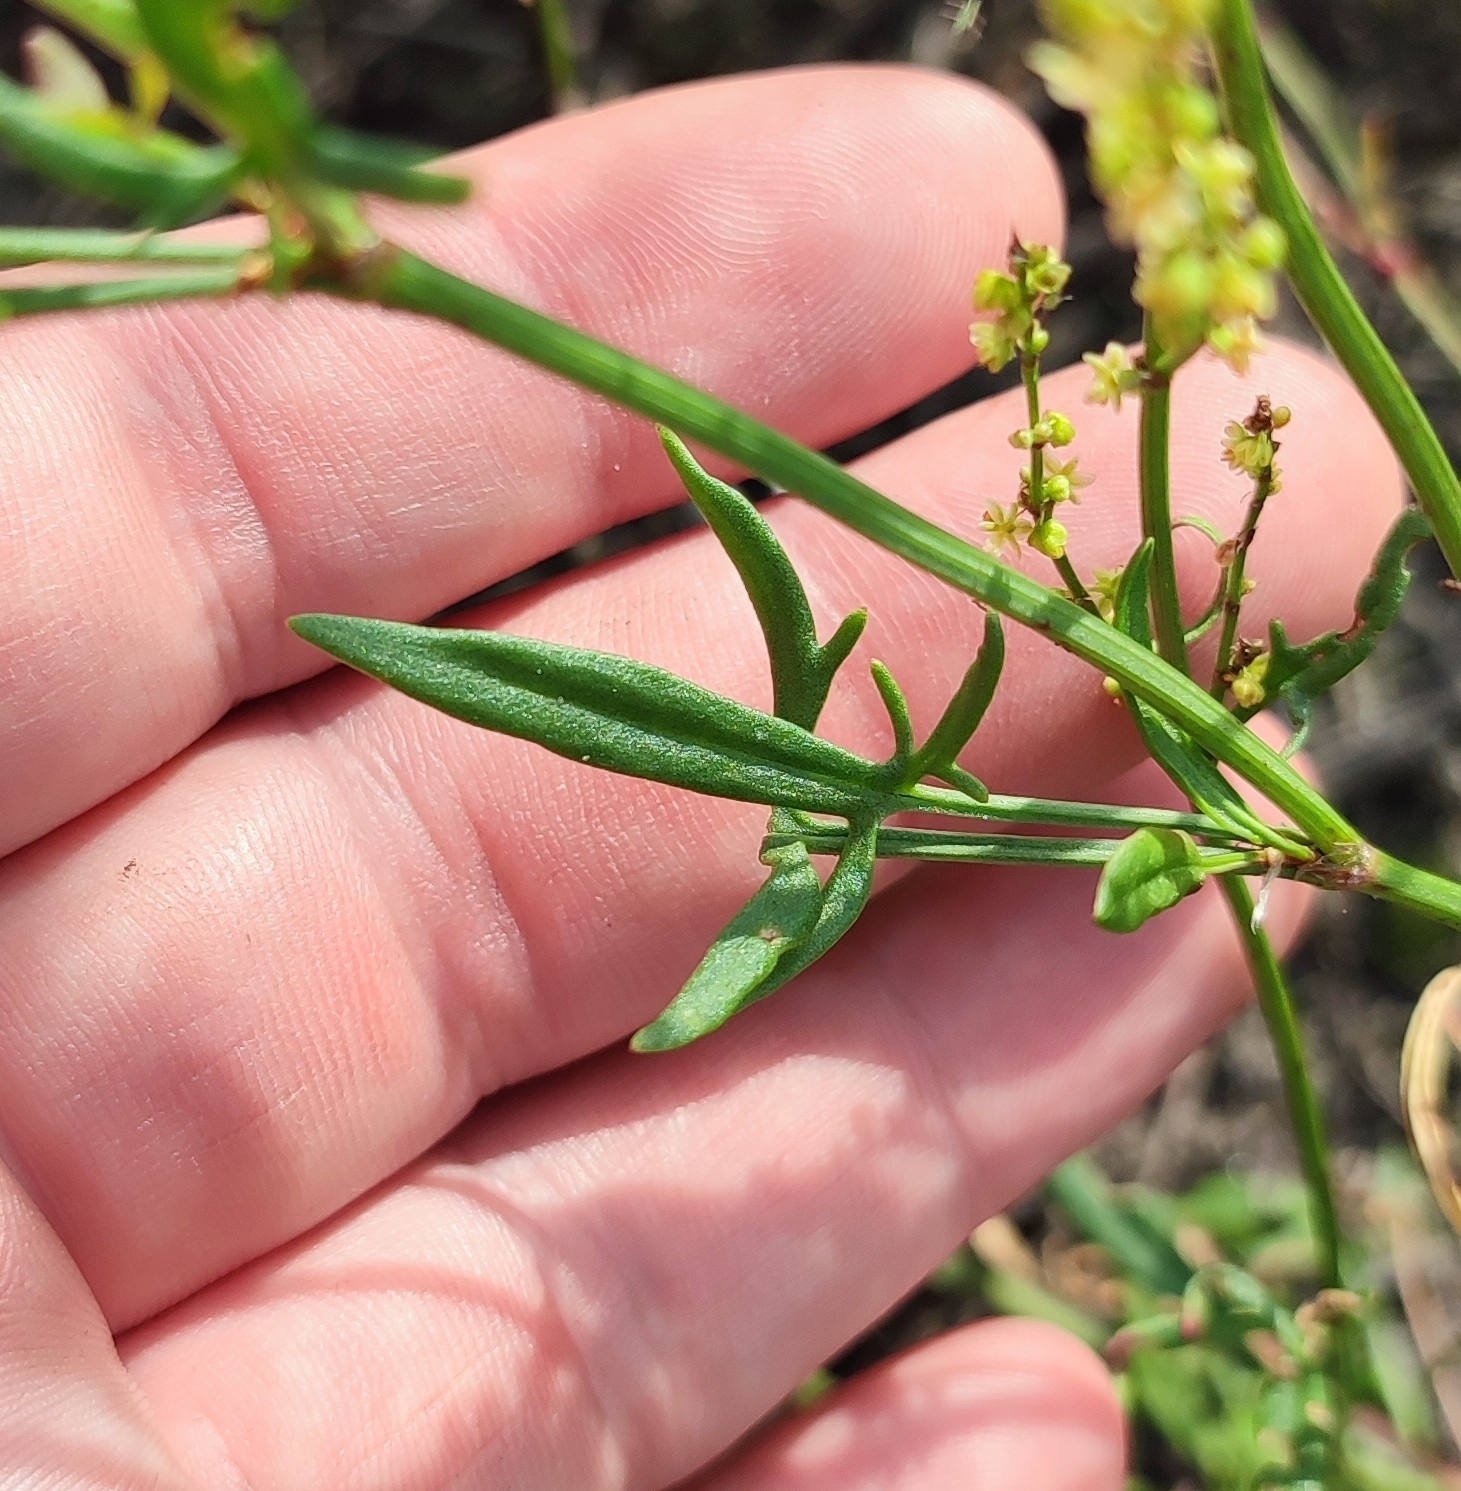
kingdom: Plantae
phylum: Tracheophyta
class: Magnoliopsida
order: Caryophyllales
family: Polygonaceae
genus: Rumex
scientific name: Rumex acetosella
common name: Common sheep sorrel
